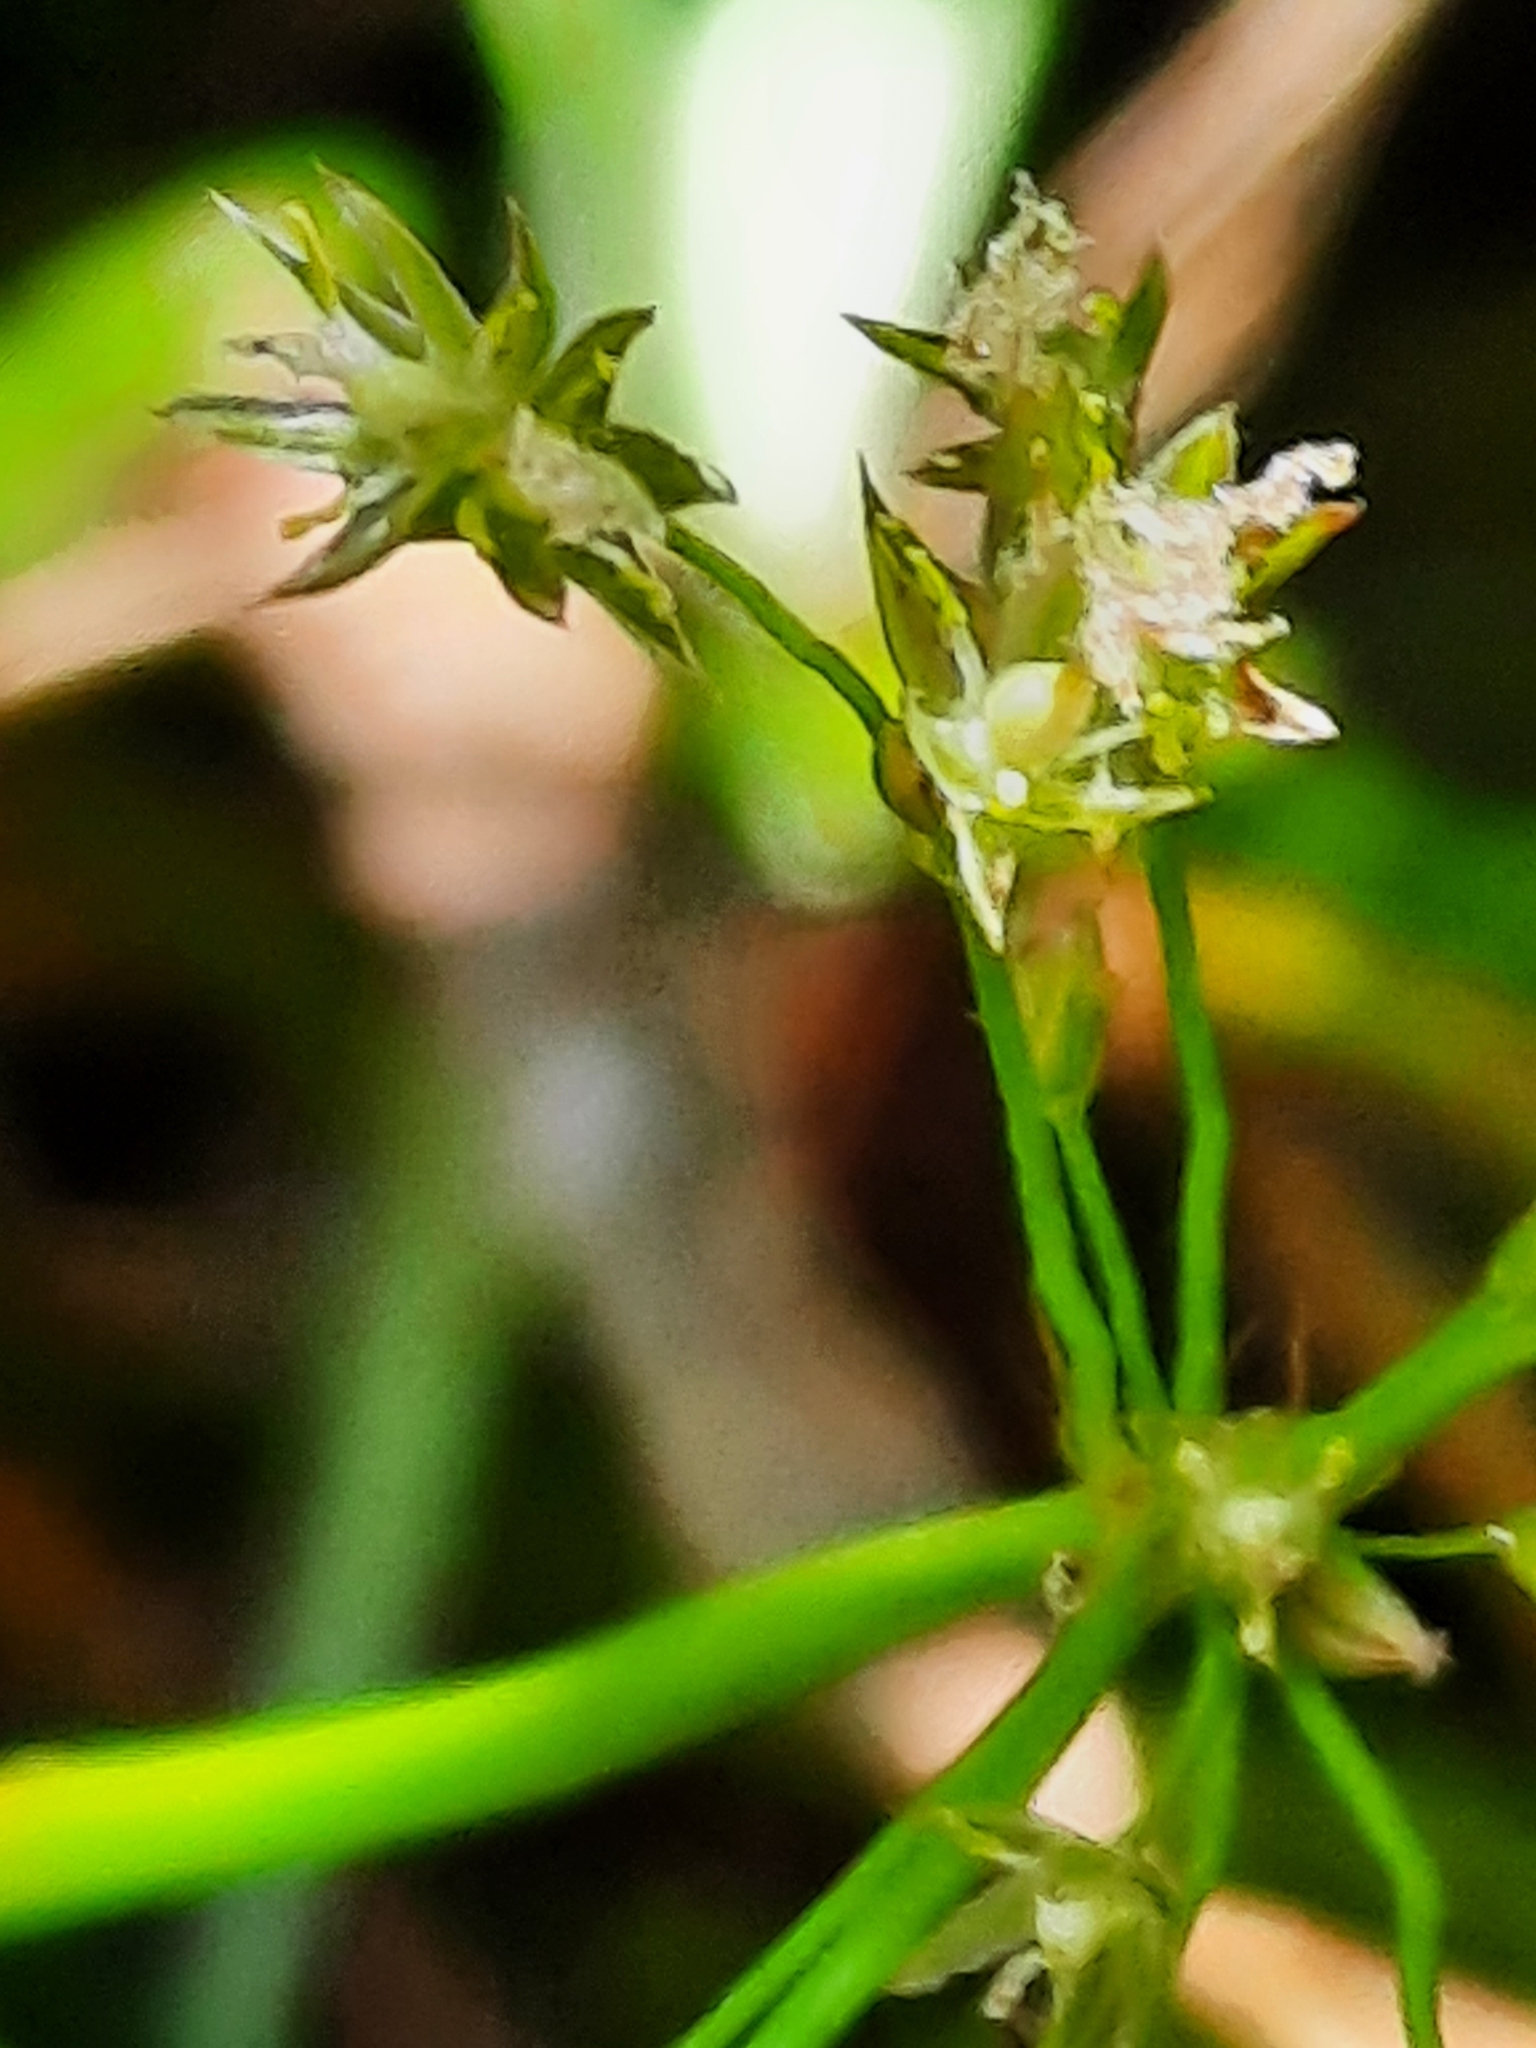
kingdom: Plantae
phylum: Tracheophyta
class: Liliopsida
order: Poales
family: Juncaceae
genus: Juncus
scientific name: Juncus effusus
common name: Soft rush
